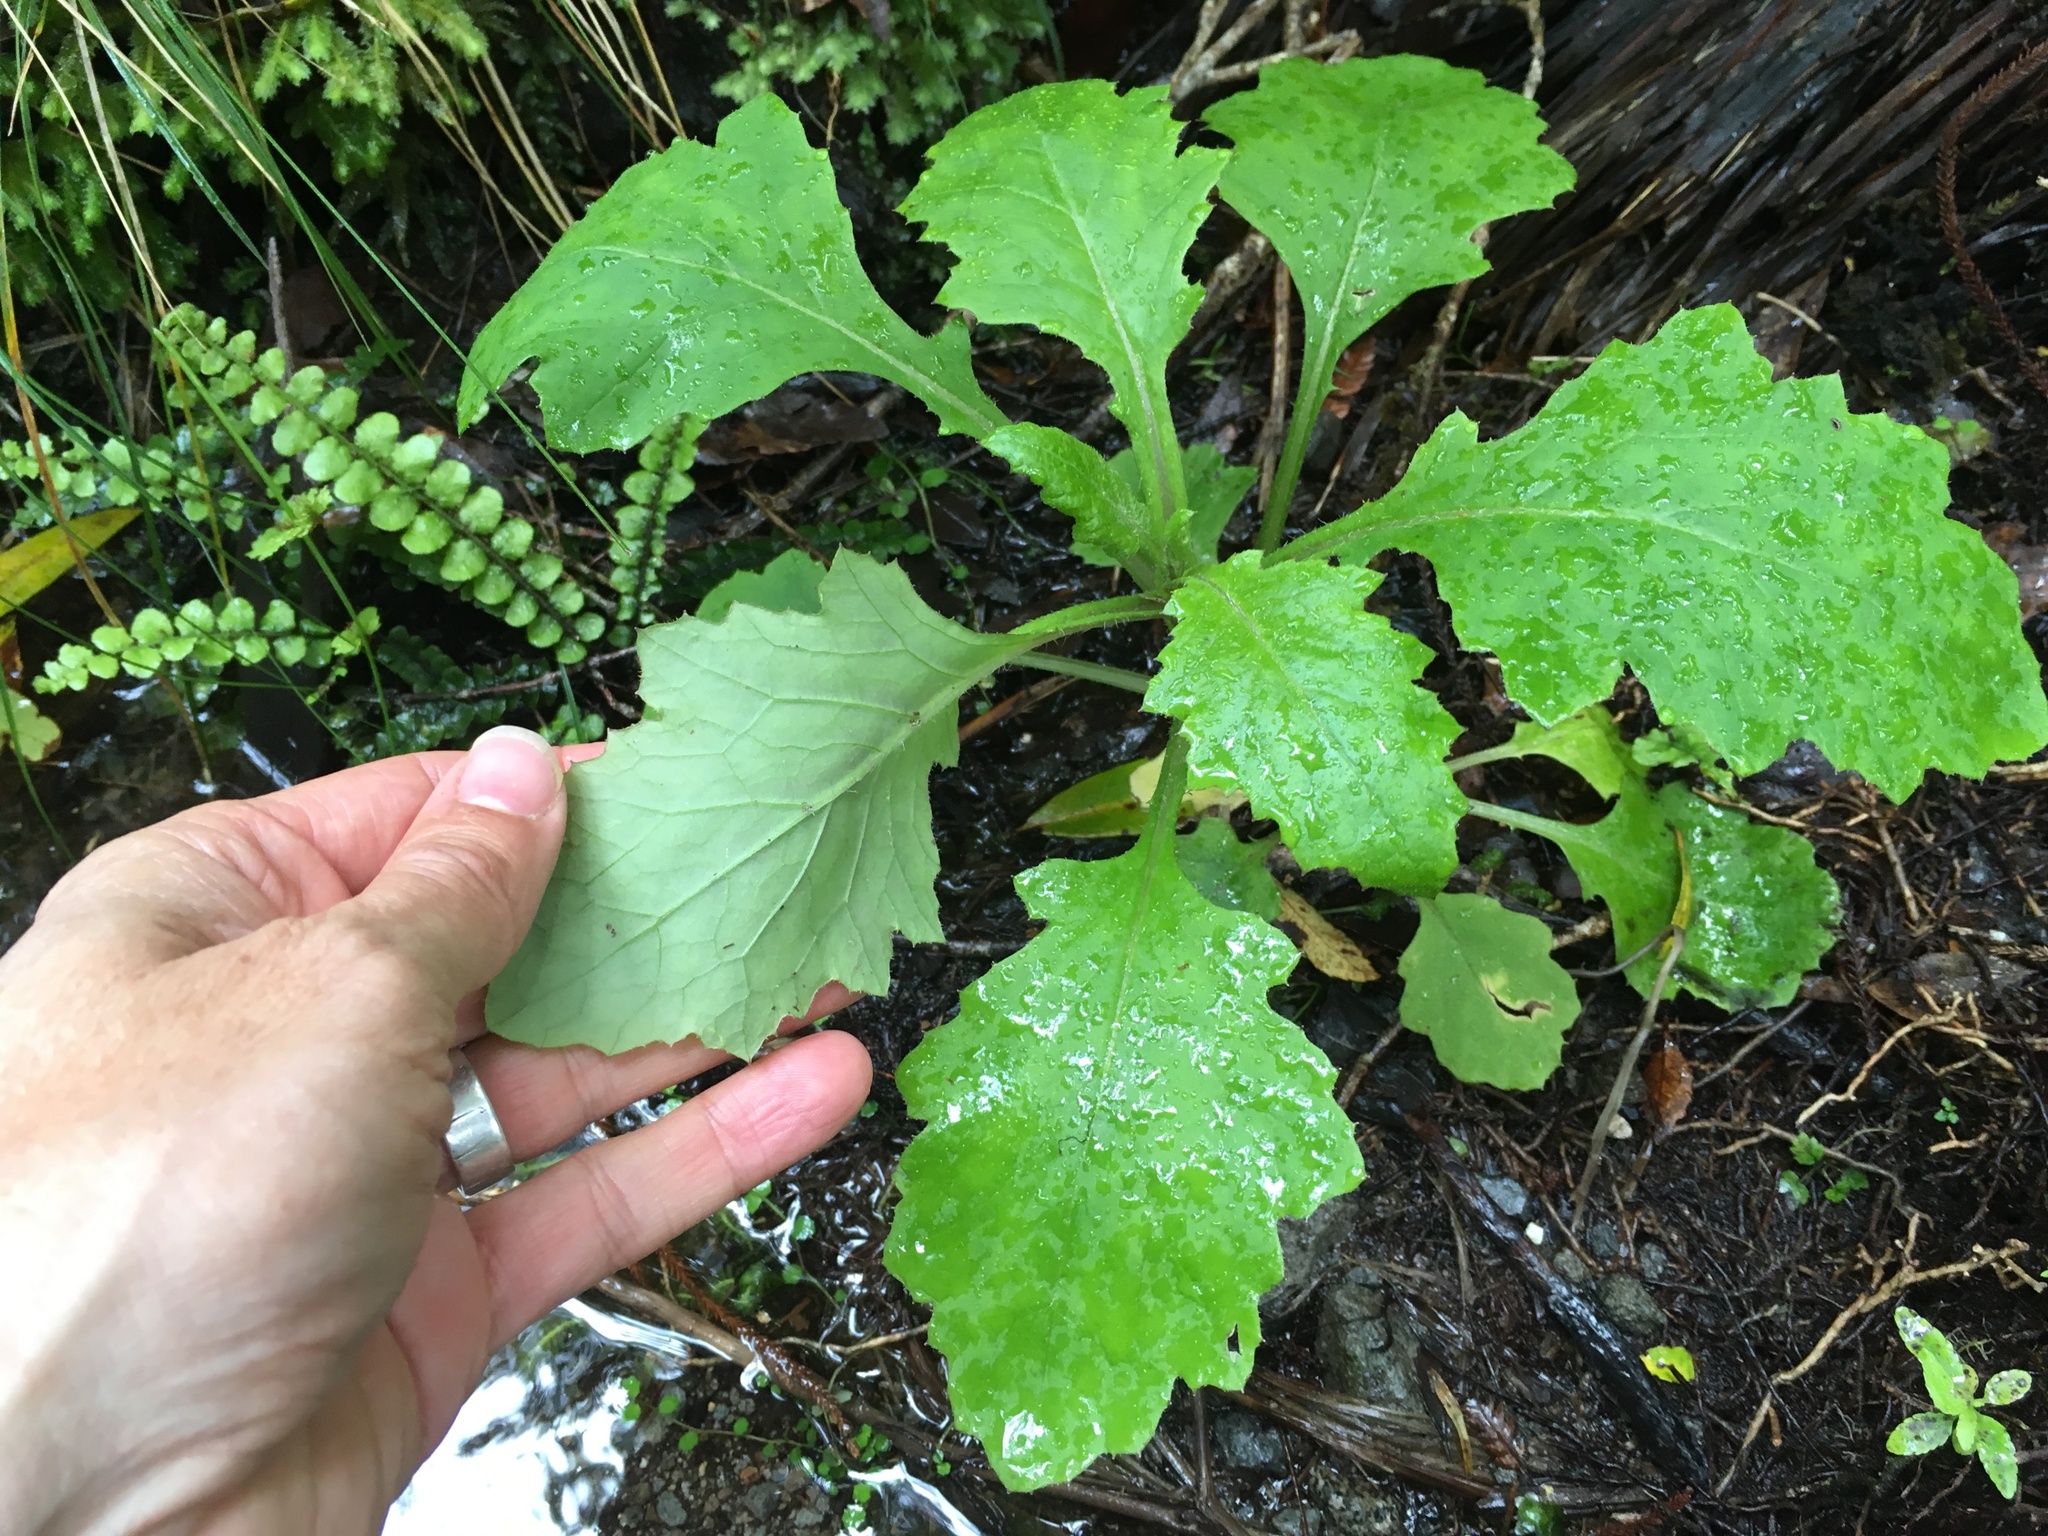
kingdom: Plantae
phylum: Tracheophyta
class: Magnoliopsida
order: Asterales
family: Asteraceae
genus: Senecio
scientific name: Senecio rufiglandulosus
